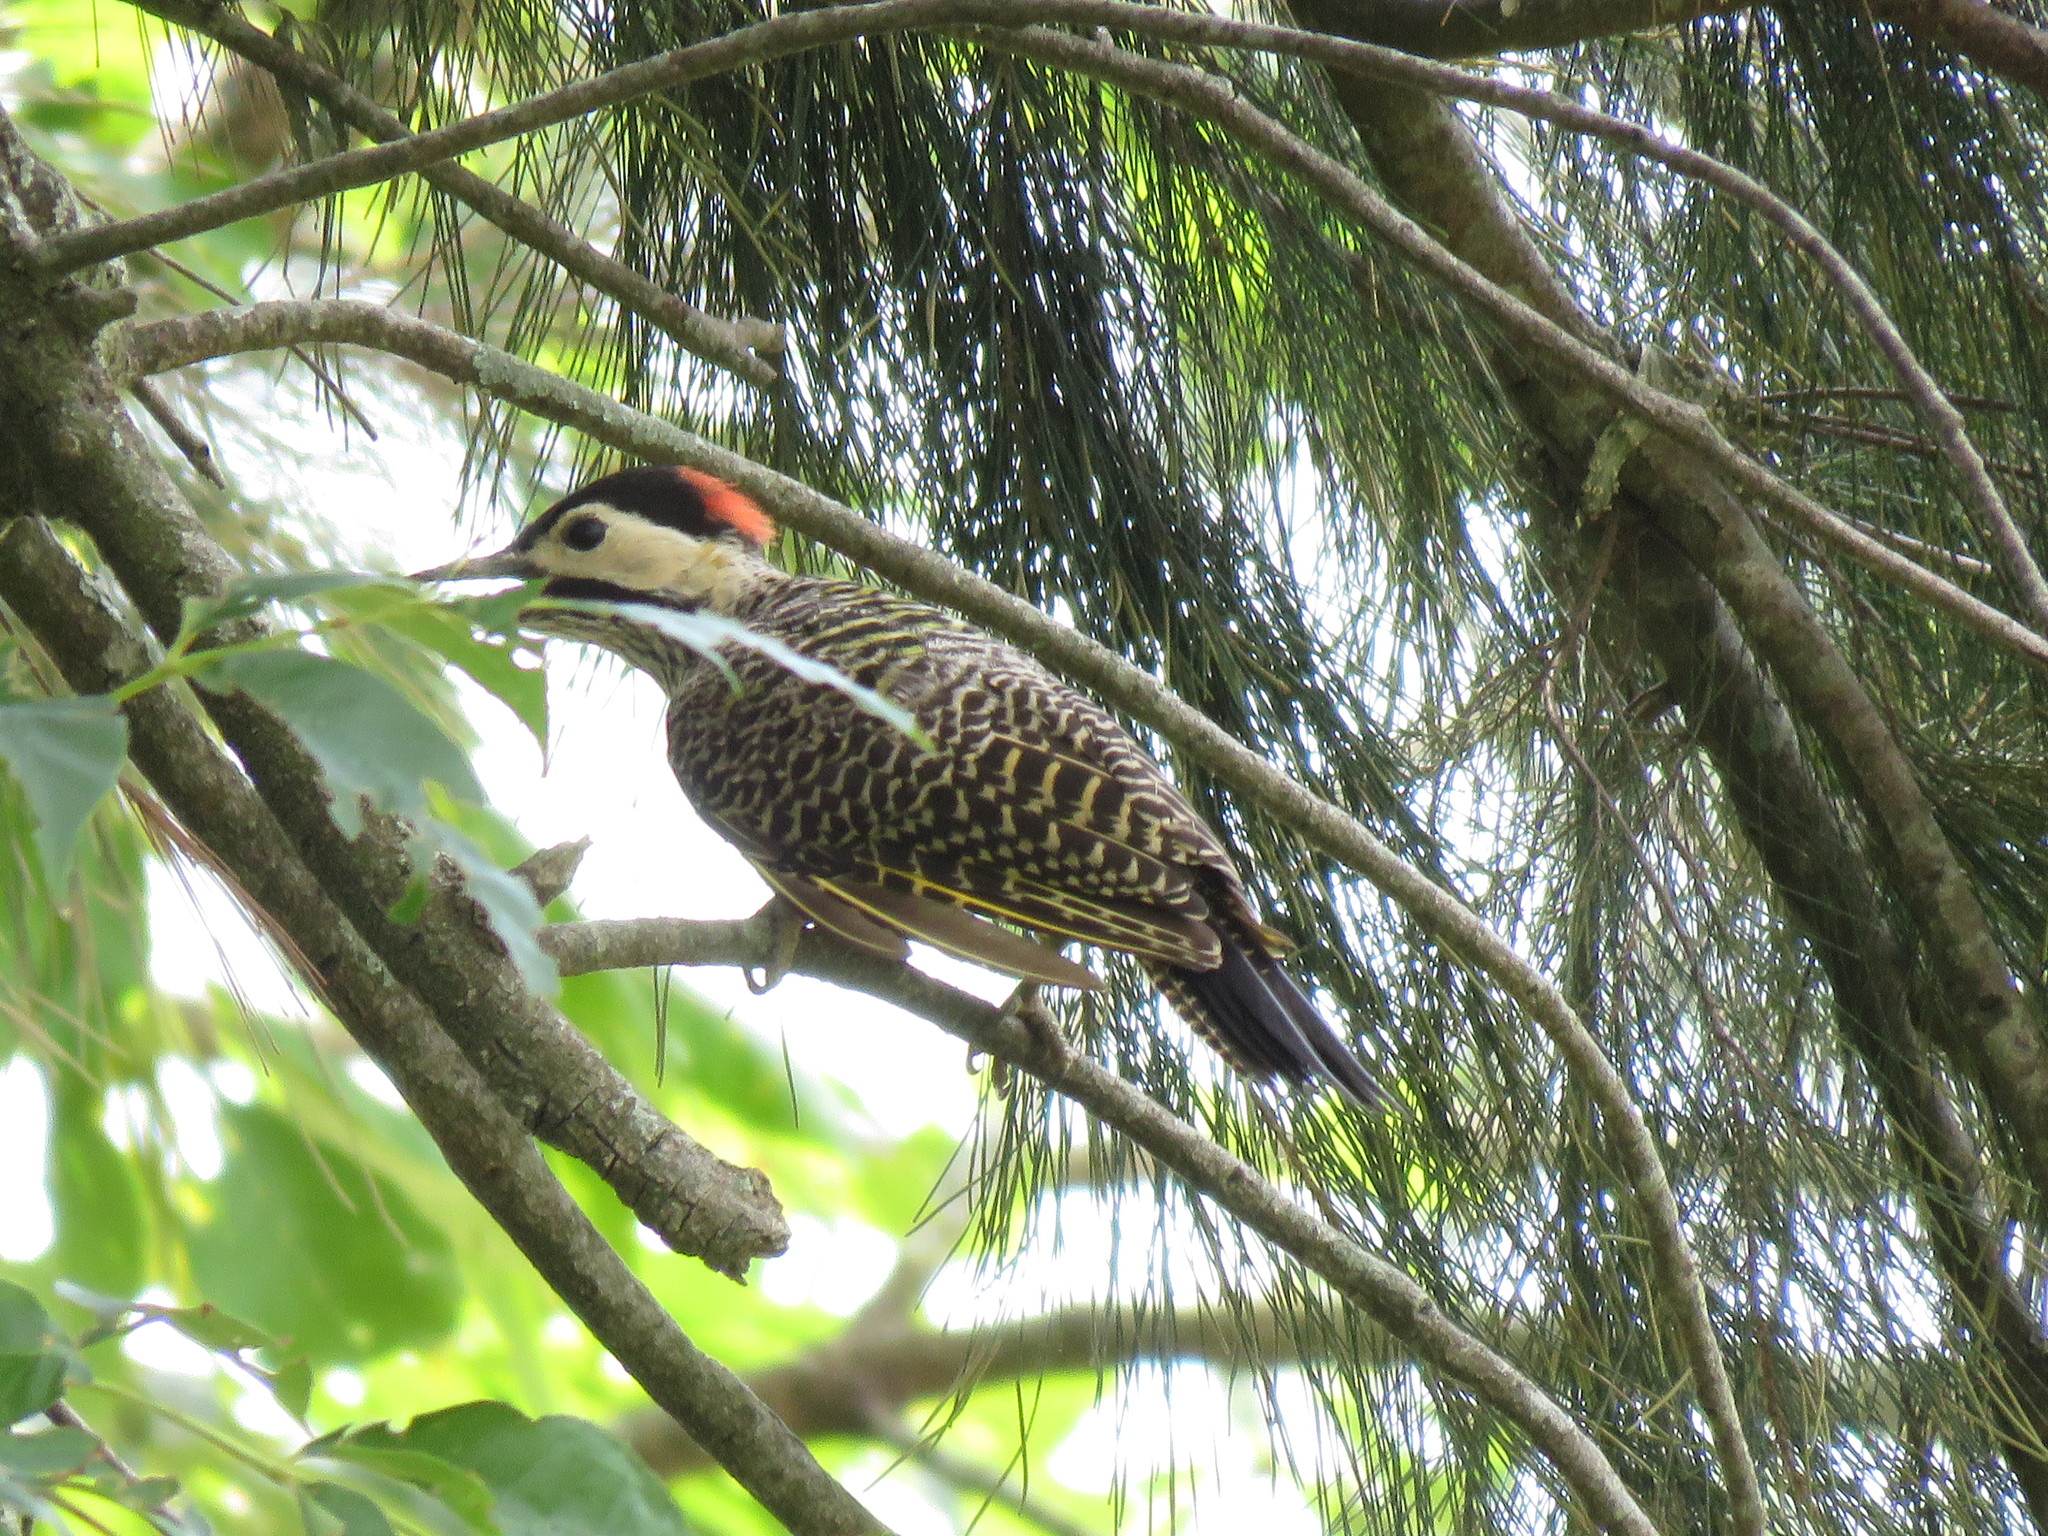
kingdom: Animalia
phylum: Chordata
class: Aves
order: Piciformes
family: Picidae
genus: Colaptes
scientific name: Colaptes melanochloros
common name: Green-barred woodpecker
